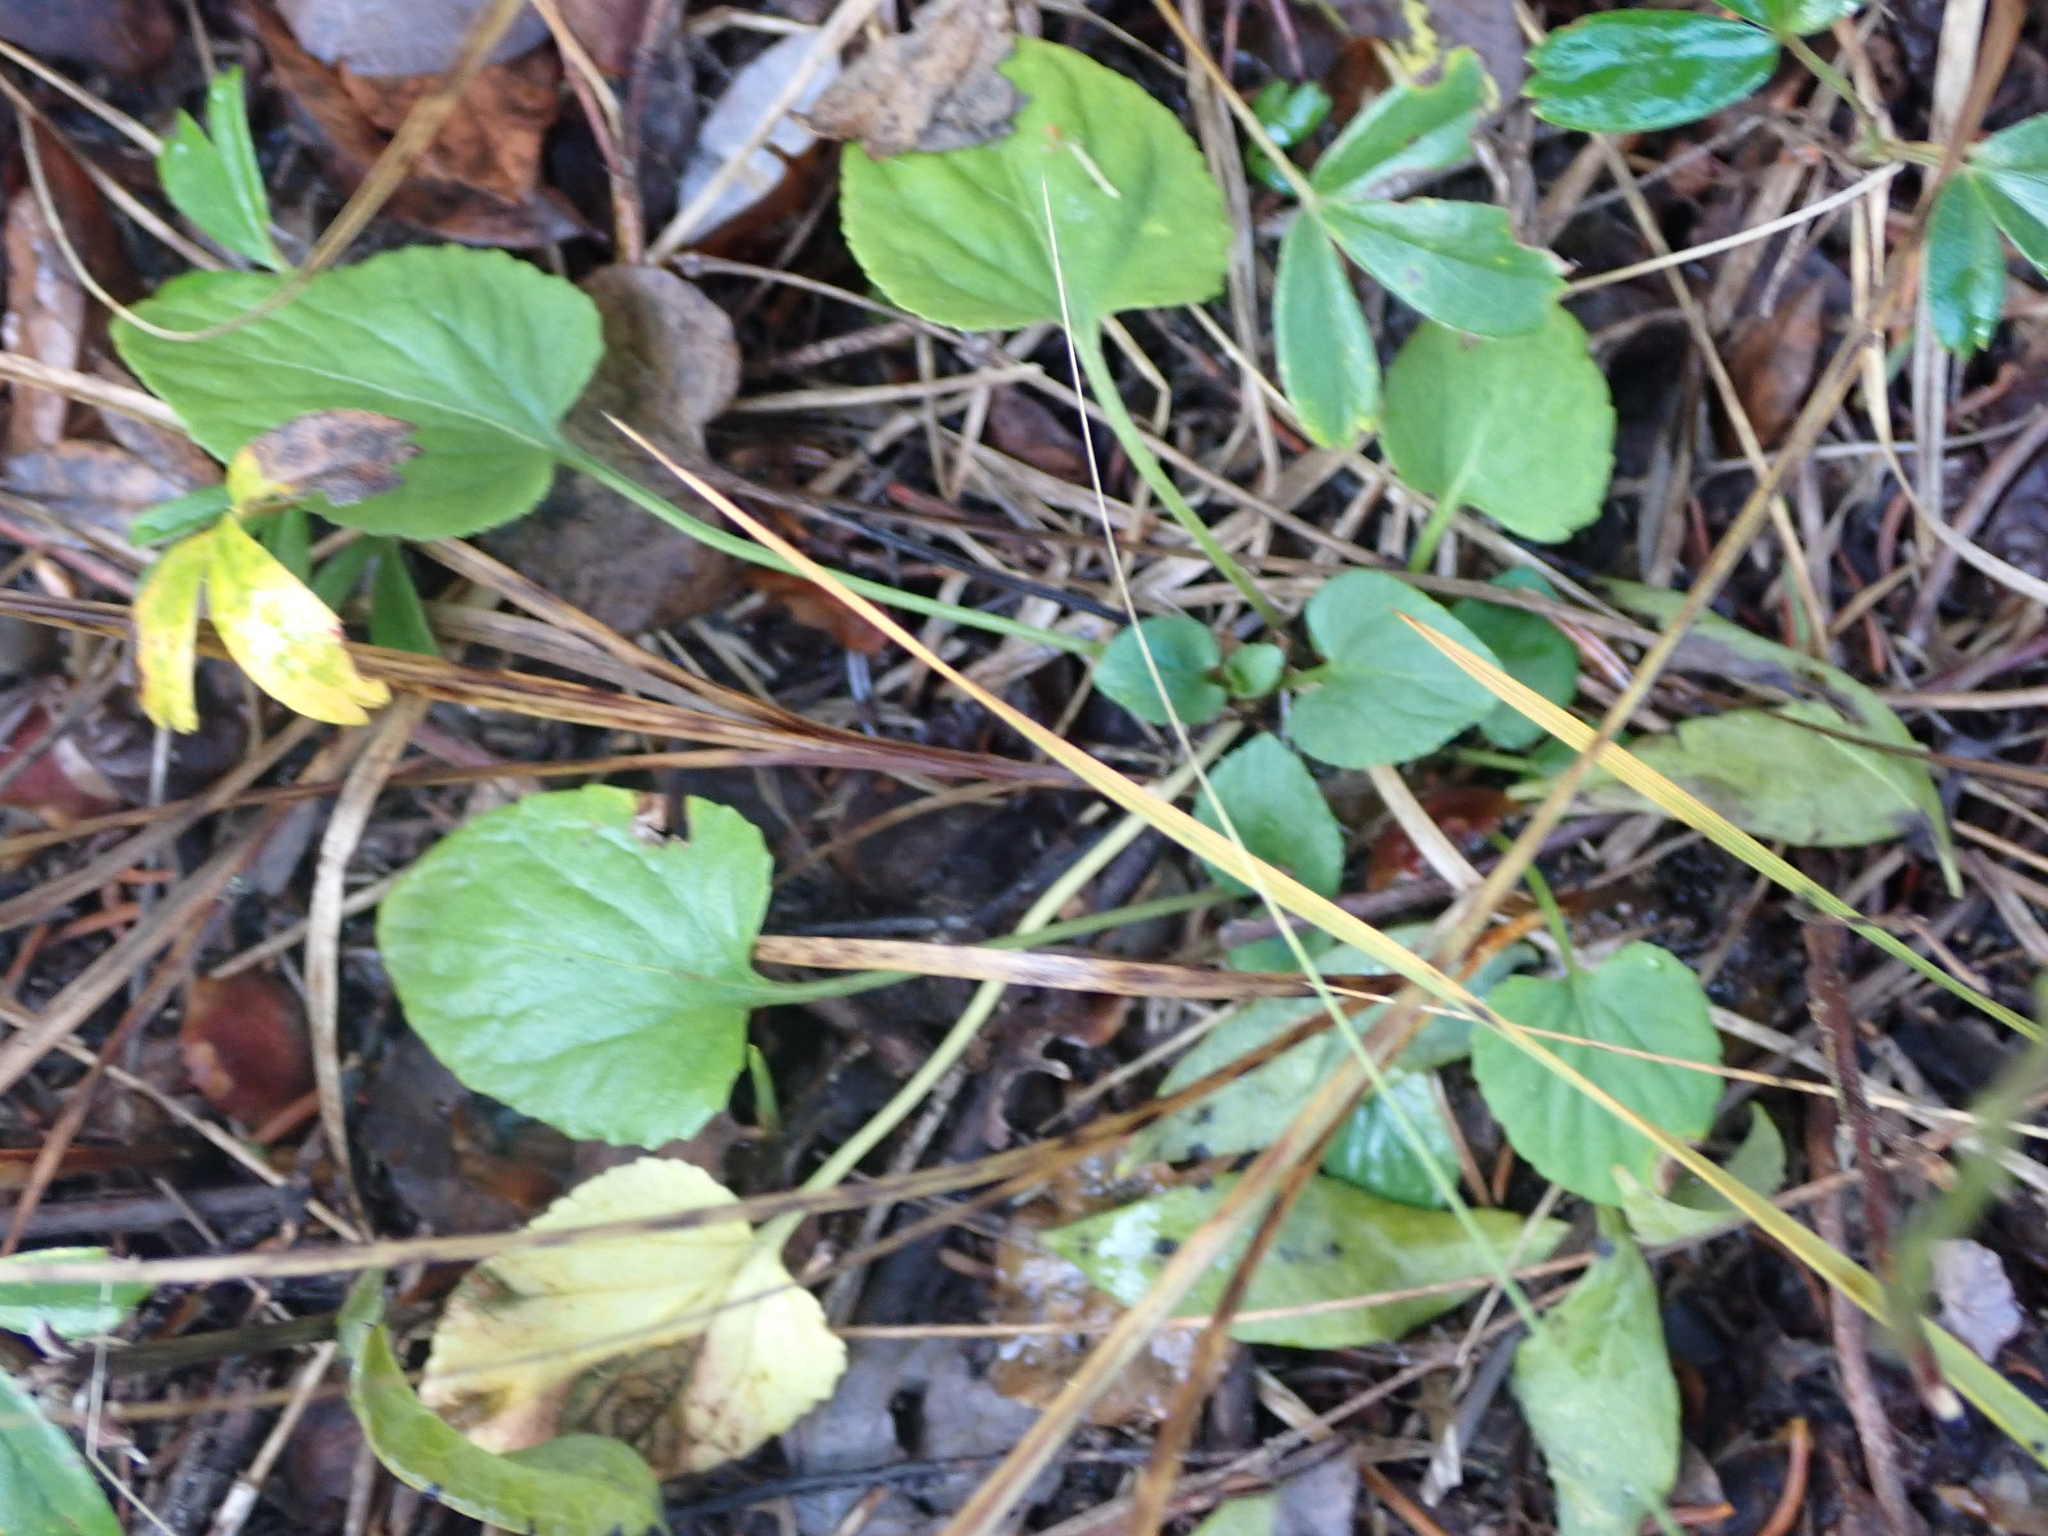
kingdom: Plantae
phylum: Tracheophyta
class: Magnoliopsida
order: Malpighiales
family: Violaceae
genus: Viola
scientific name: Viola adunca
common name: Sand violet
